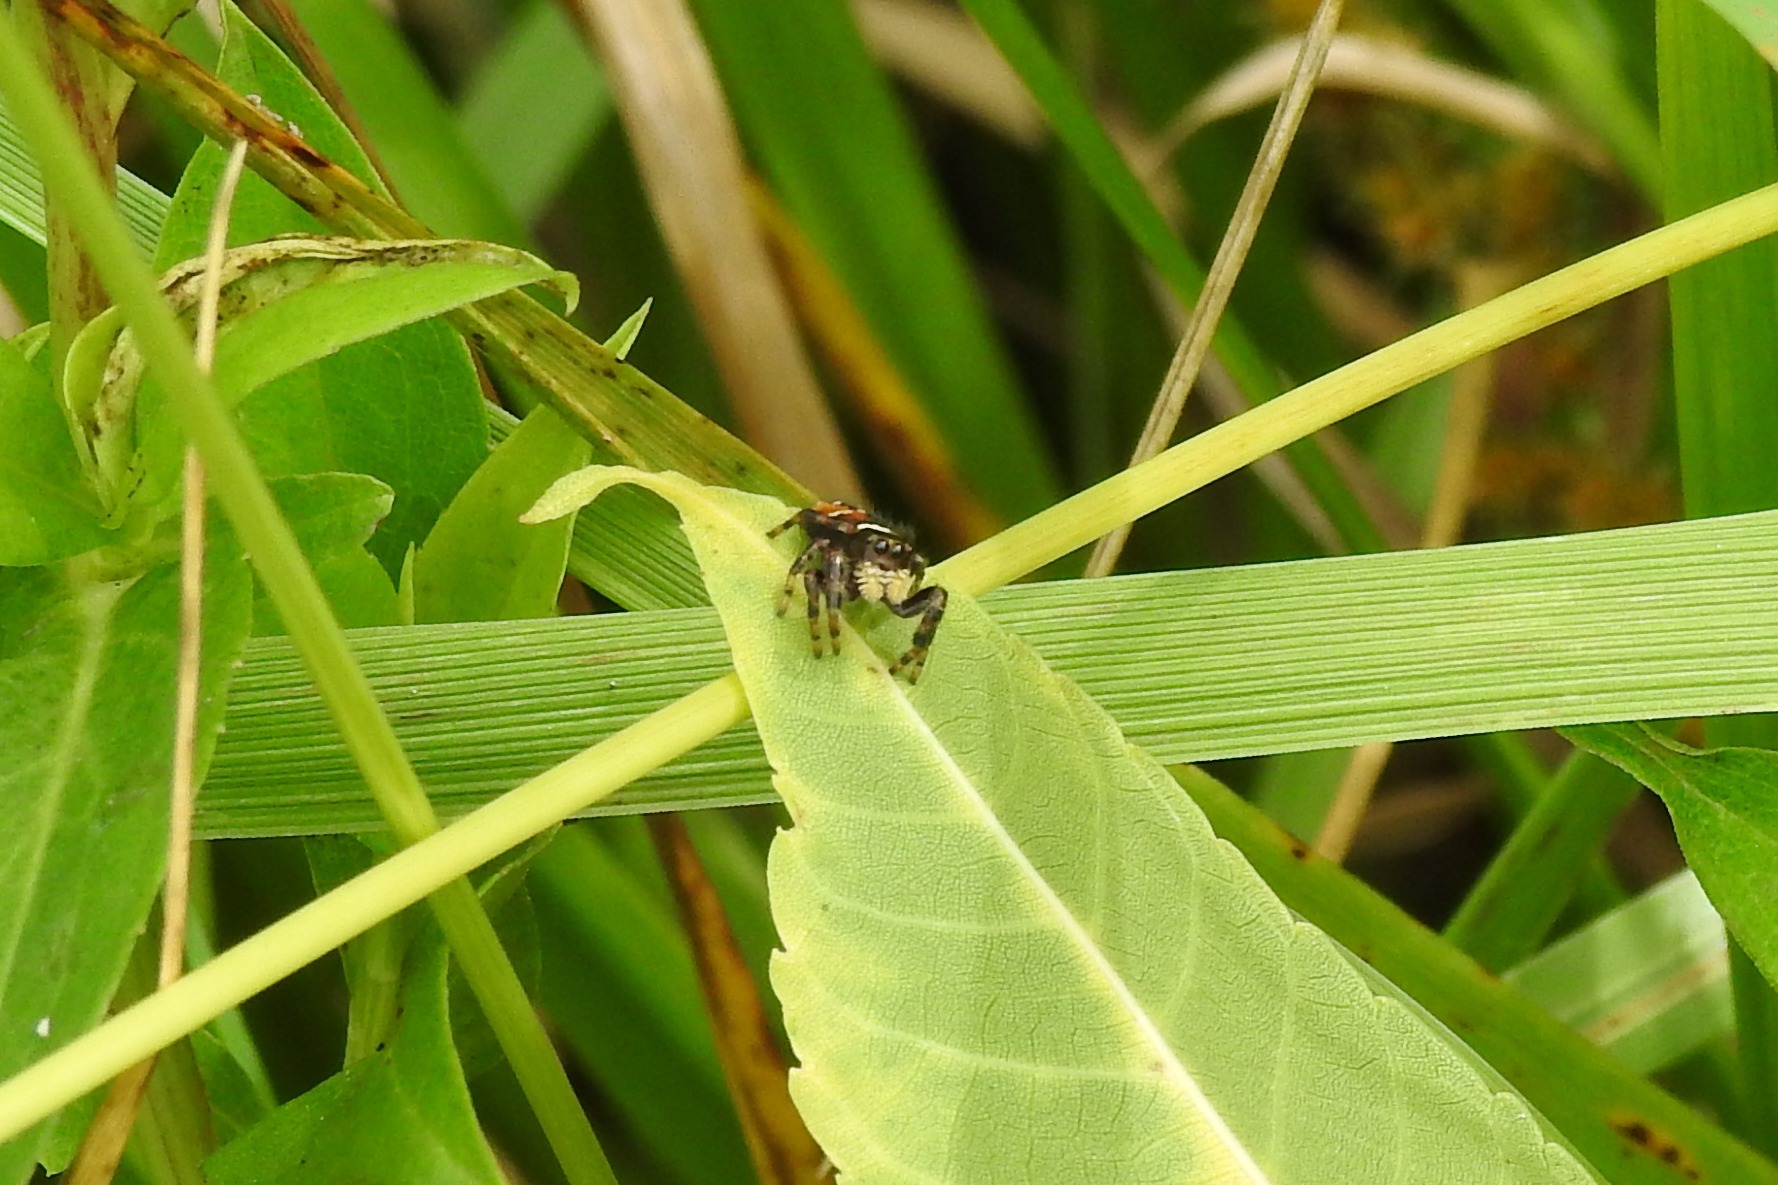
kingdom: Animalia
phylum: Arthropoda
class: Arachnida
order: Araneae
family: Salticidae
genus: Phidippus
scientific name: Phidippus clarus
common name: Brilliant jumping spider
